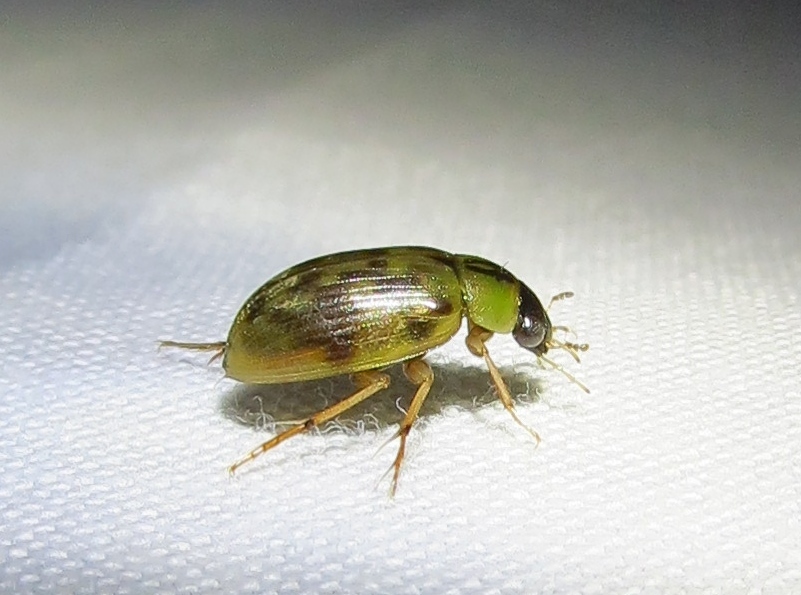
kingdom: Animalia
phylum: Arthropoda
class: Insecta
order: Coleoptera
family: Hydrophilidae
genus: Berosus
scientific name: Berosus
